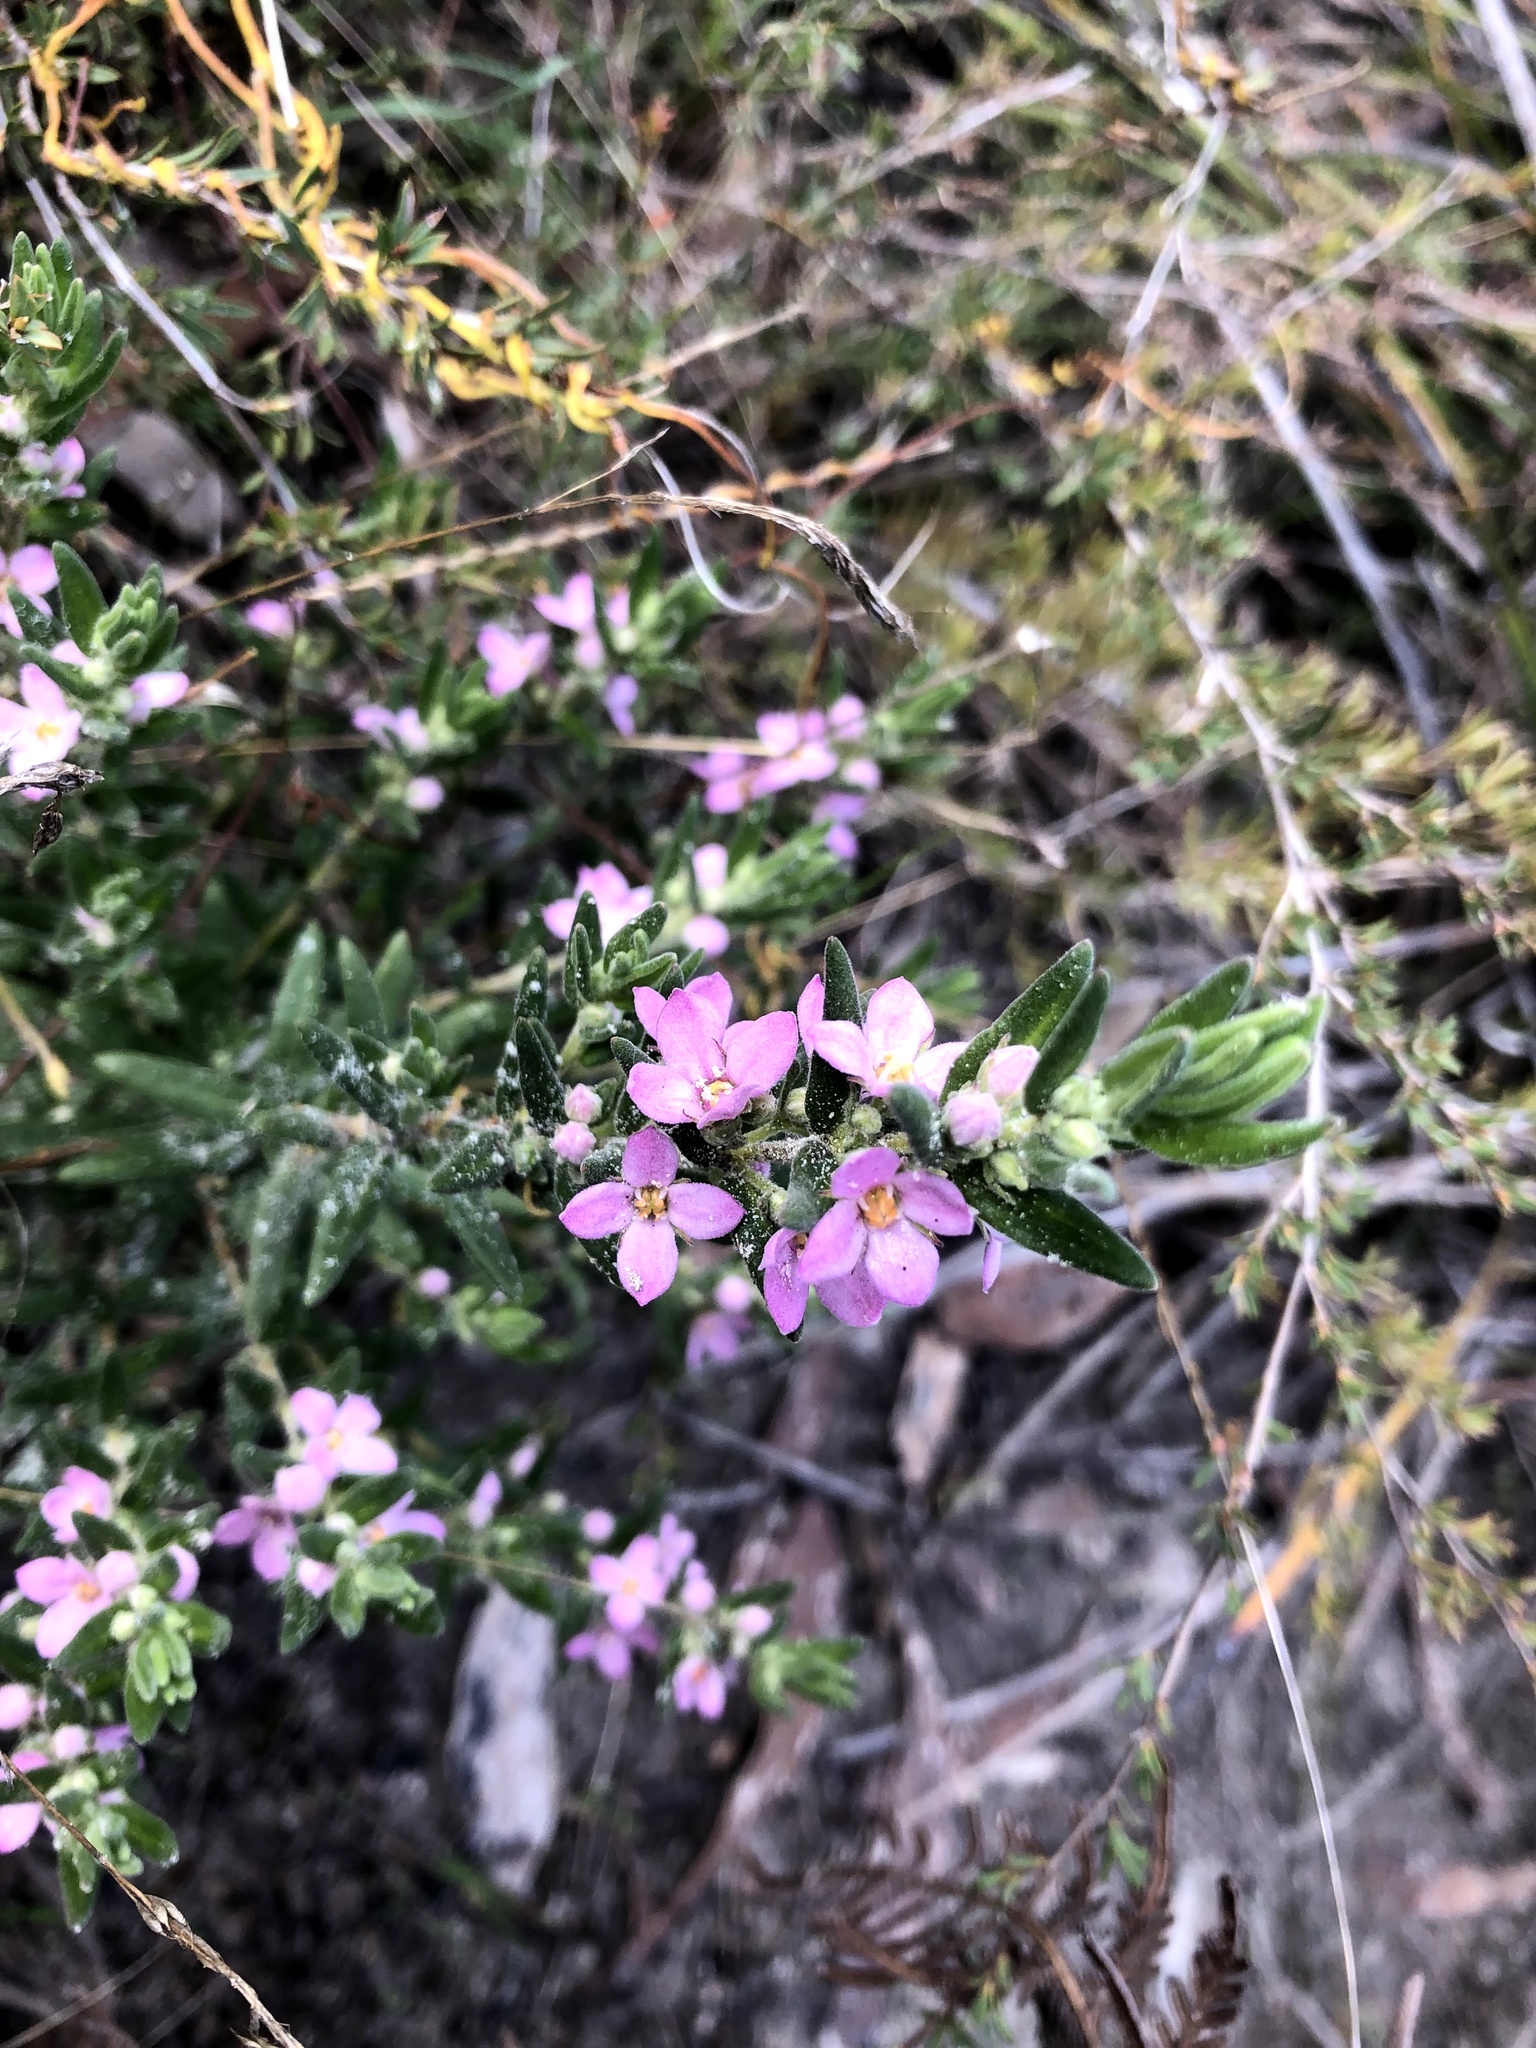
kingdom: Plantae
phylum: Tracheophyta
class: Magnoliopsida
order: Sapindales
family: Rutaceae
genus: Zieria
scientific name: Zieria veronicea
